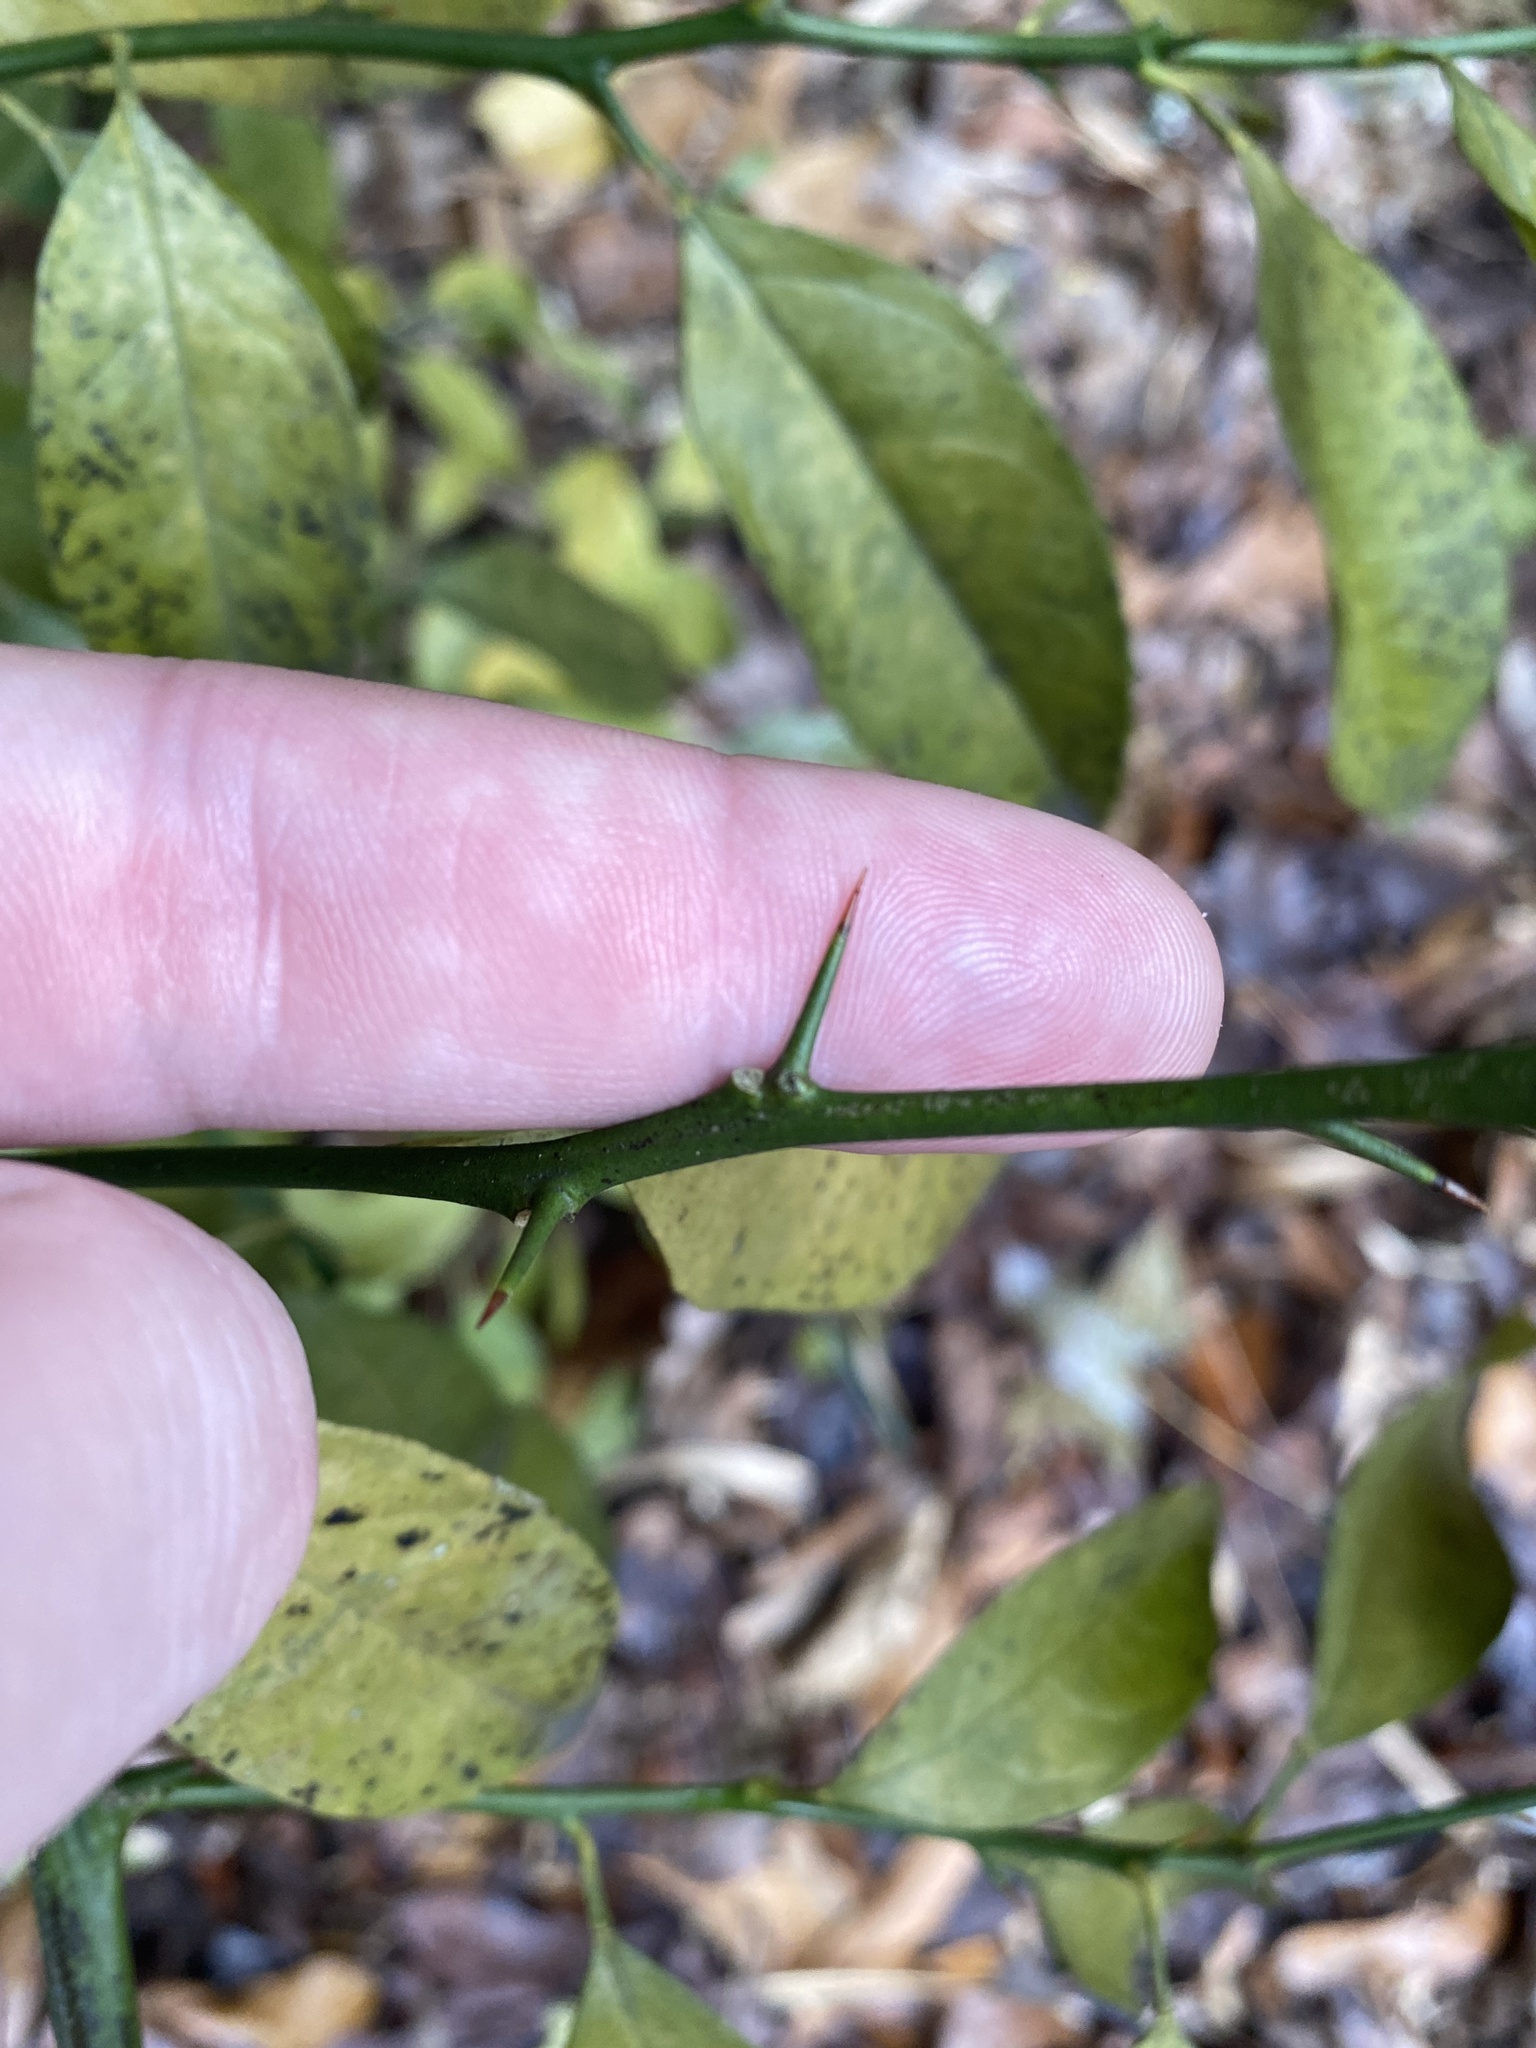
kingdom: Plantae
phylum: Tracheophyta
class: Magnoliopsida
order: Sapindales
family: Rutaceae
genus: Citrus
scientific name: Citrus
